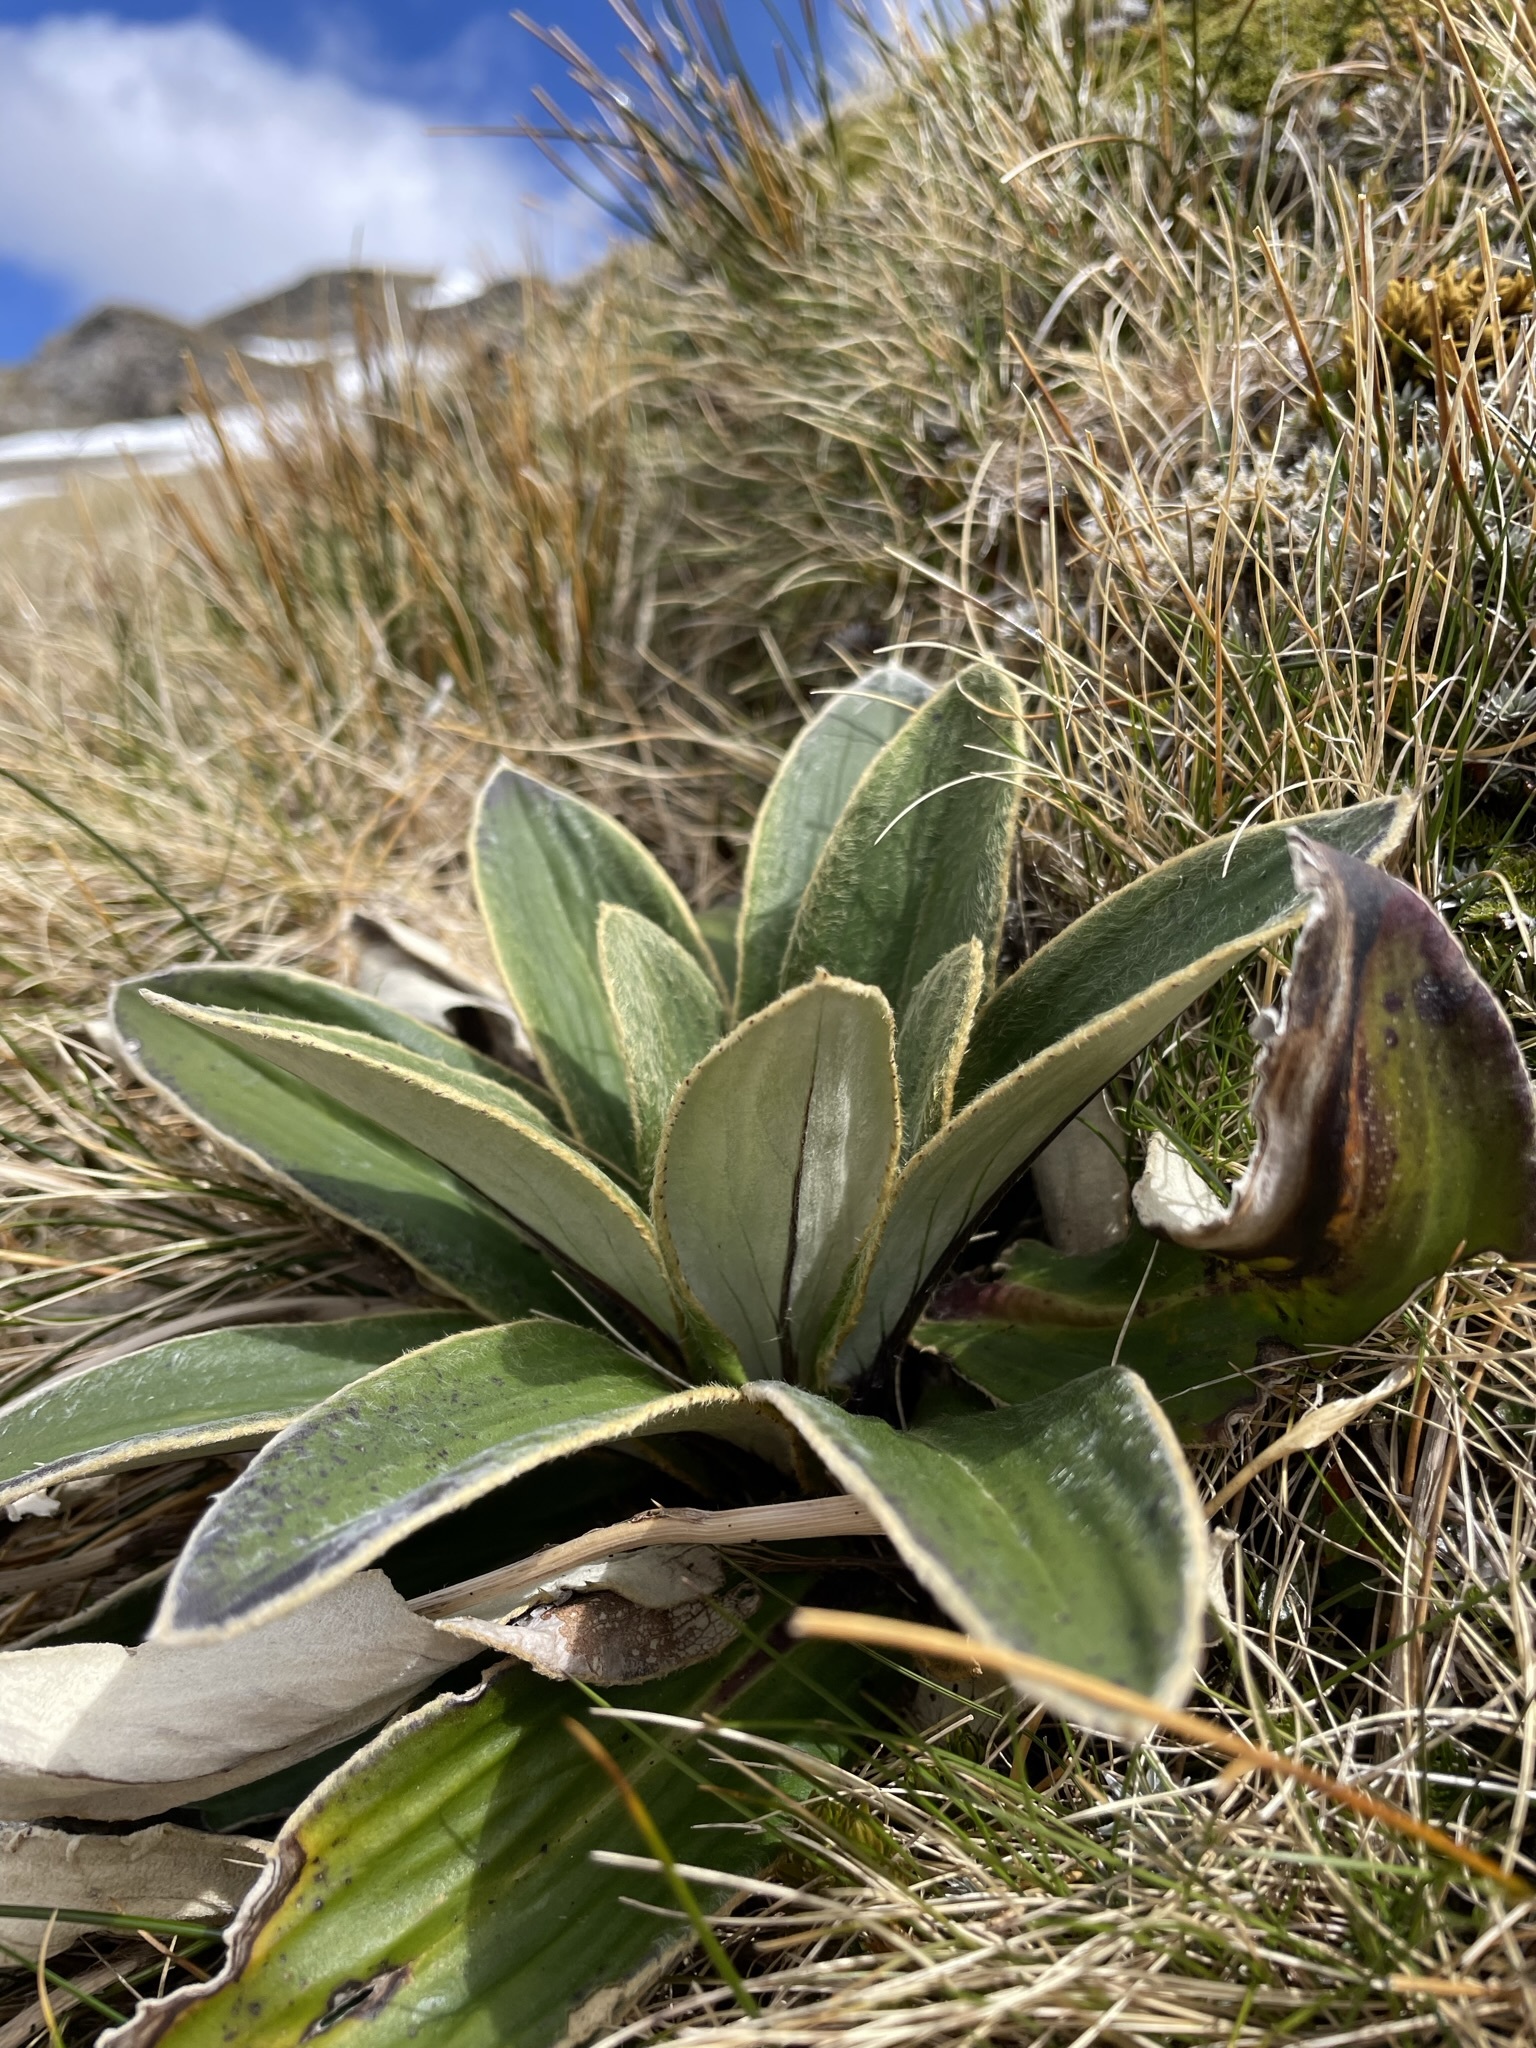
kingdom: Plantae
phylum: Tracheophyta
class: Magnoliopsida
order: Asterales
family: Asteraceae
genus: Celmisia
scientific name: Celmisia verbascifolia
